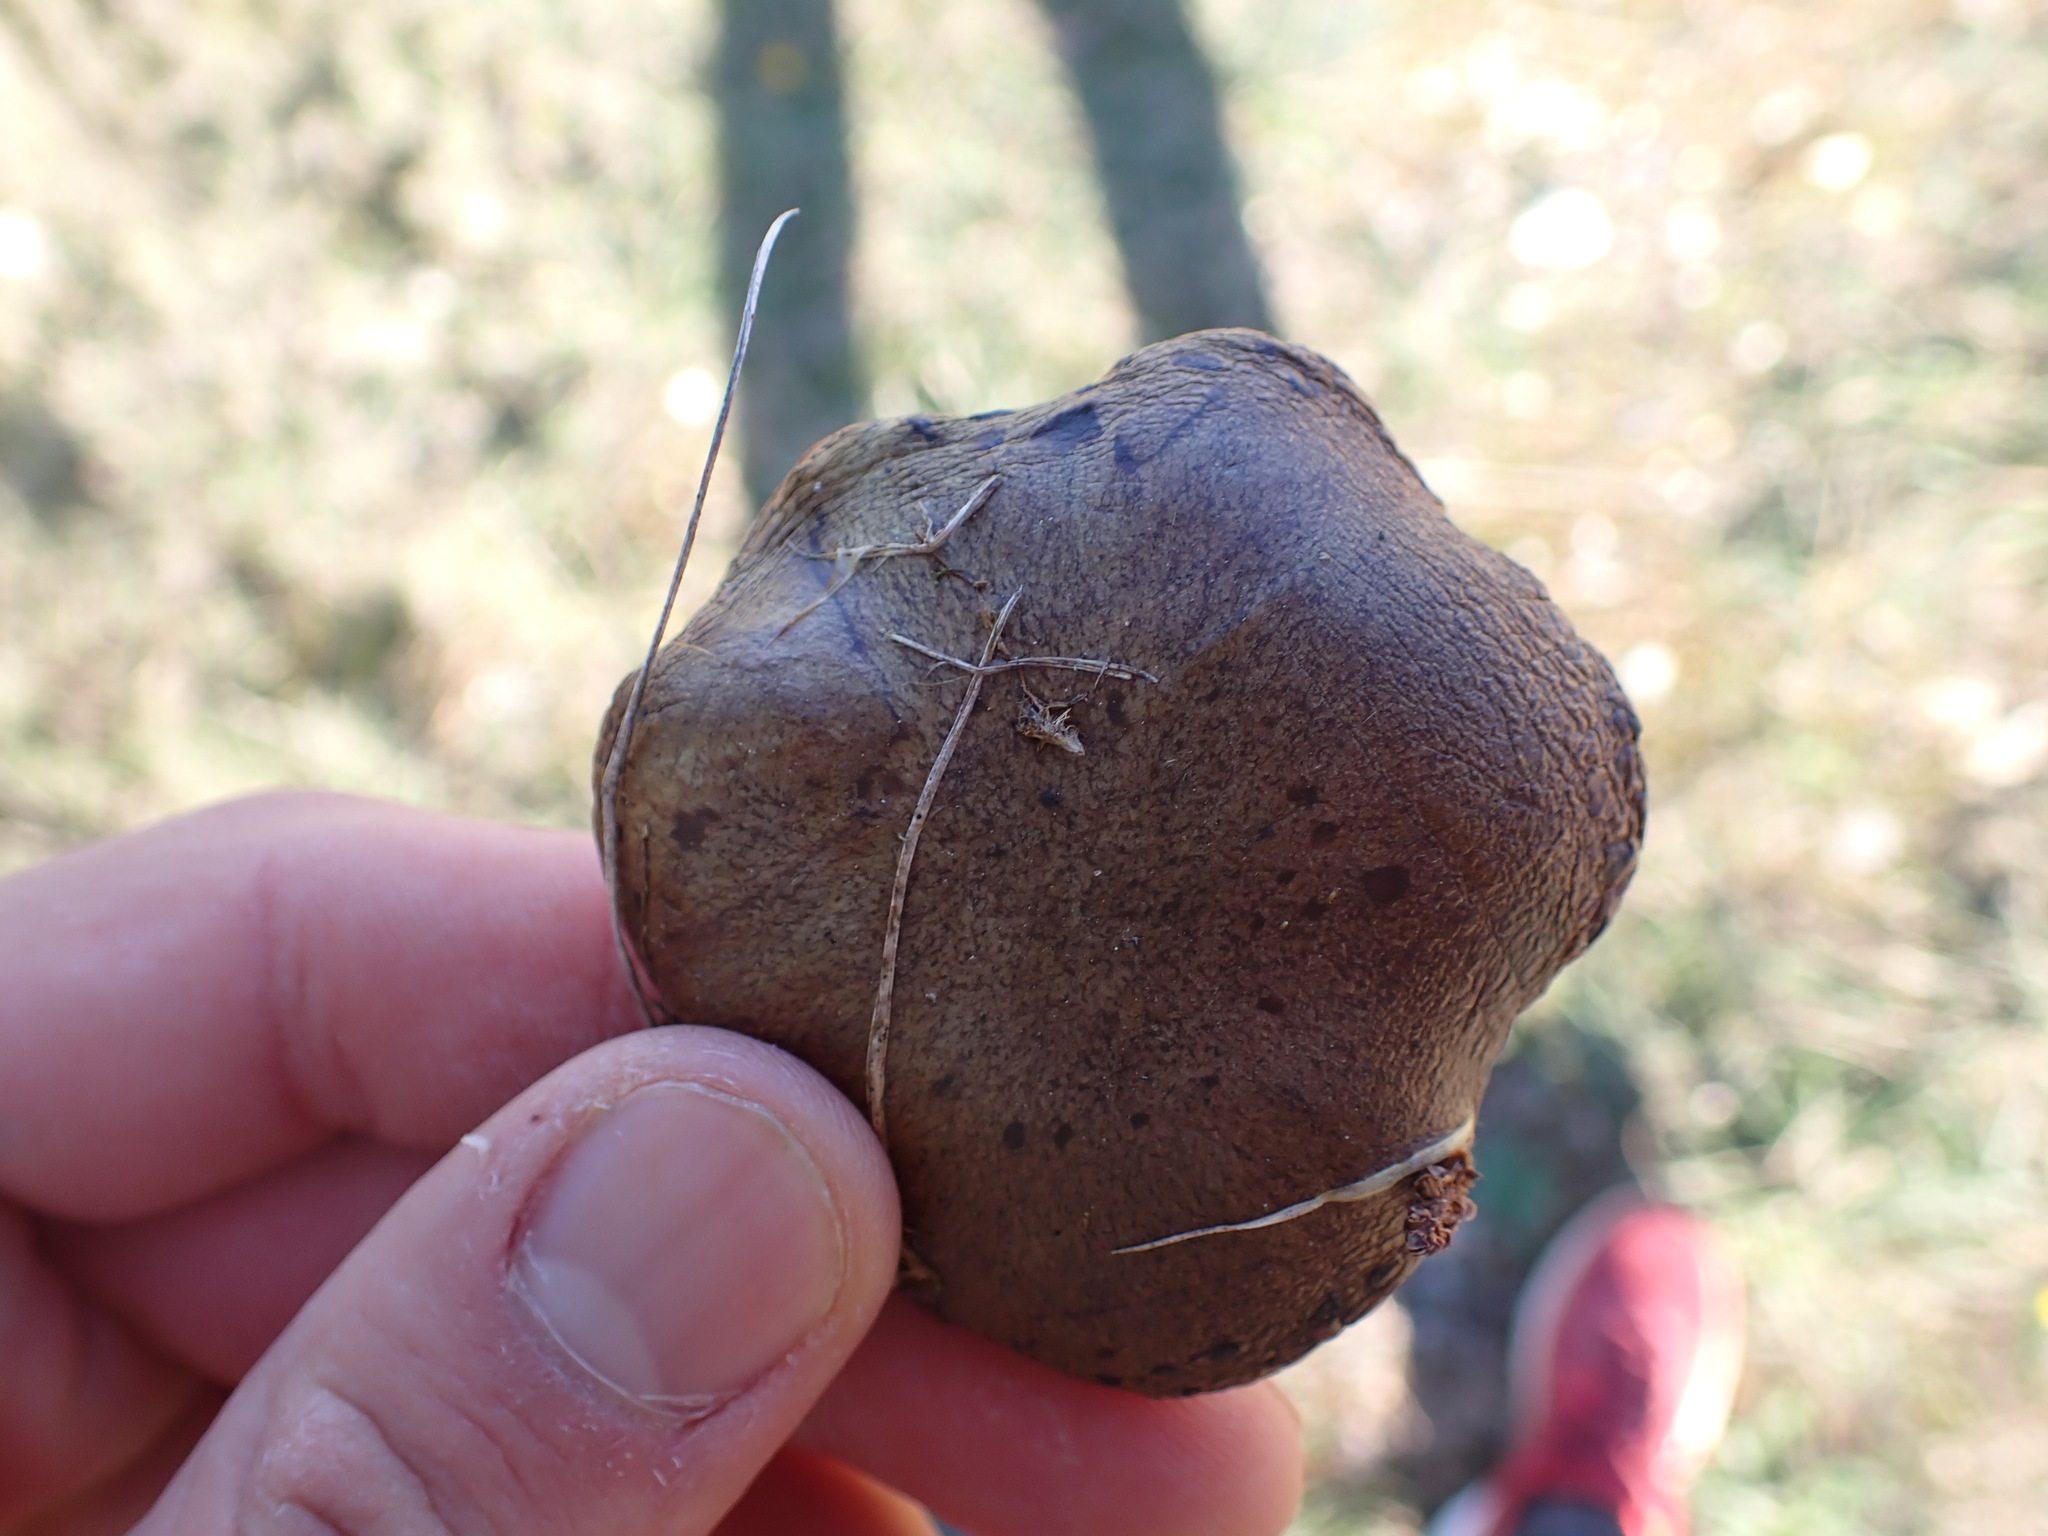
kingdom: Fungi
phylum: Basidiomycota
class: Agaricomycetes
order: Boletales
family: Suillaceae
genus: Suillus
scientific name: Suillus collinitus
